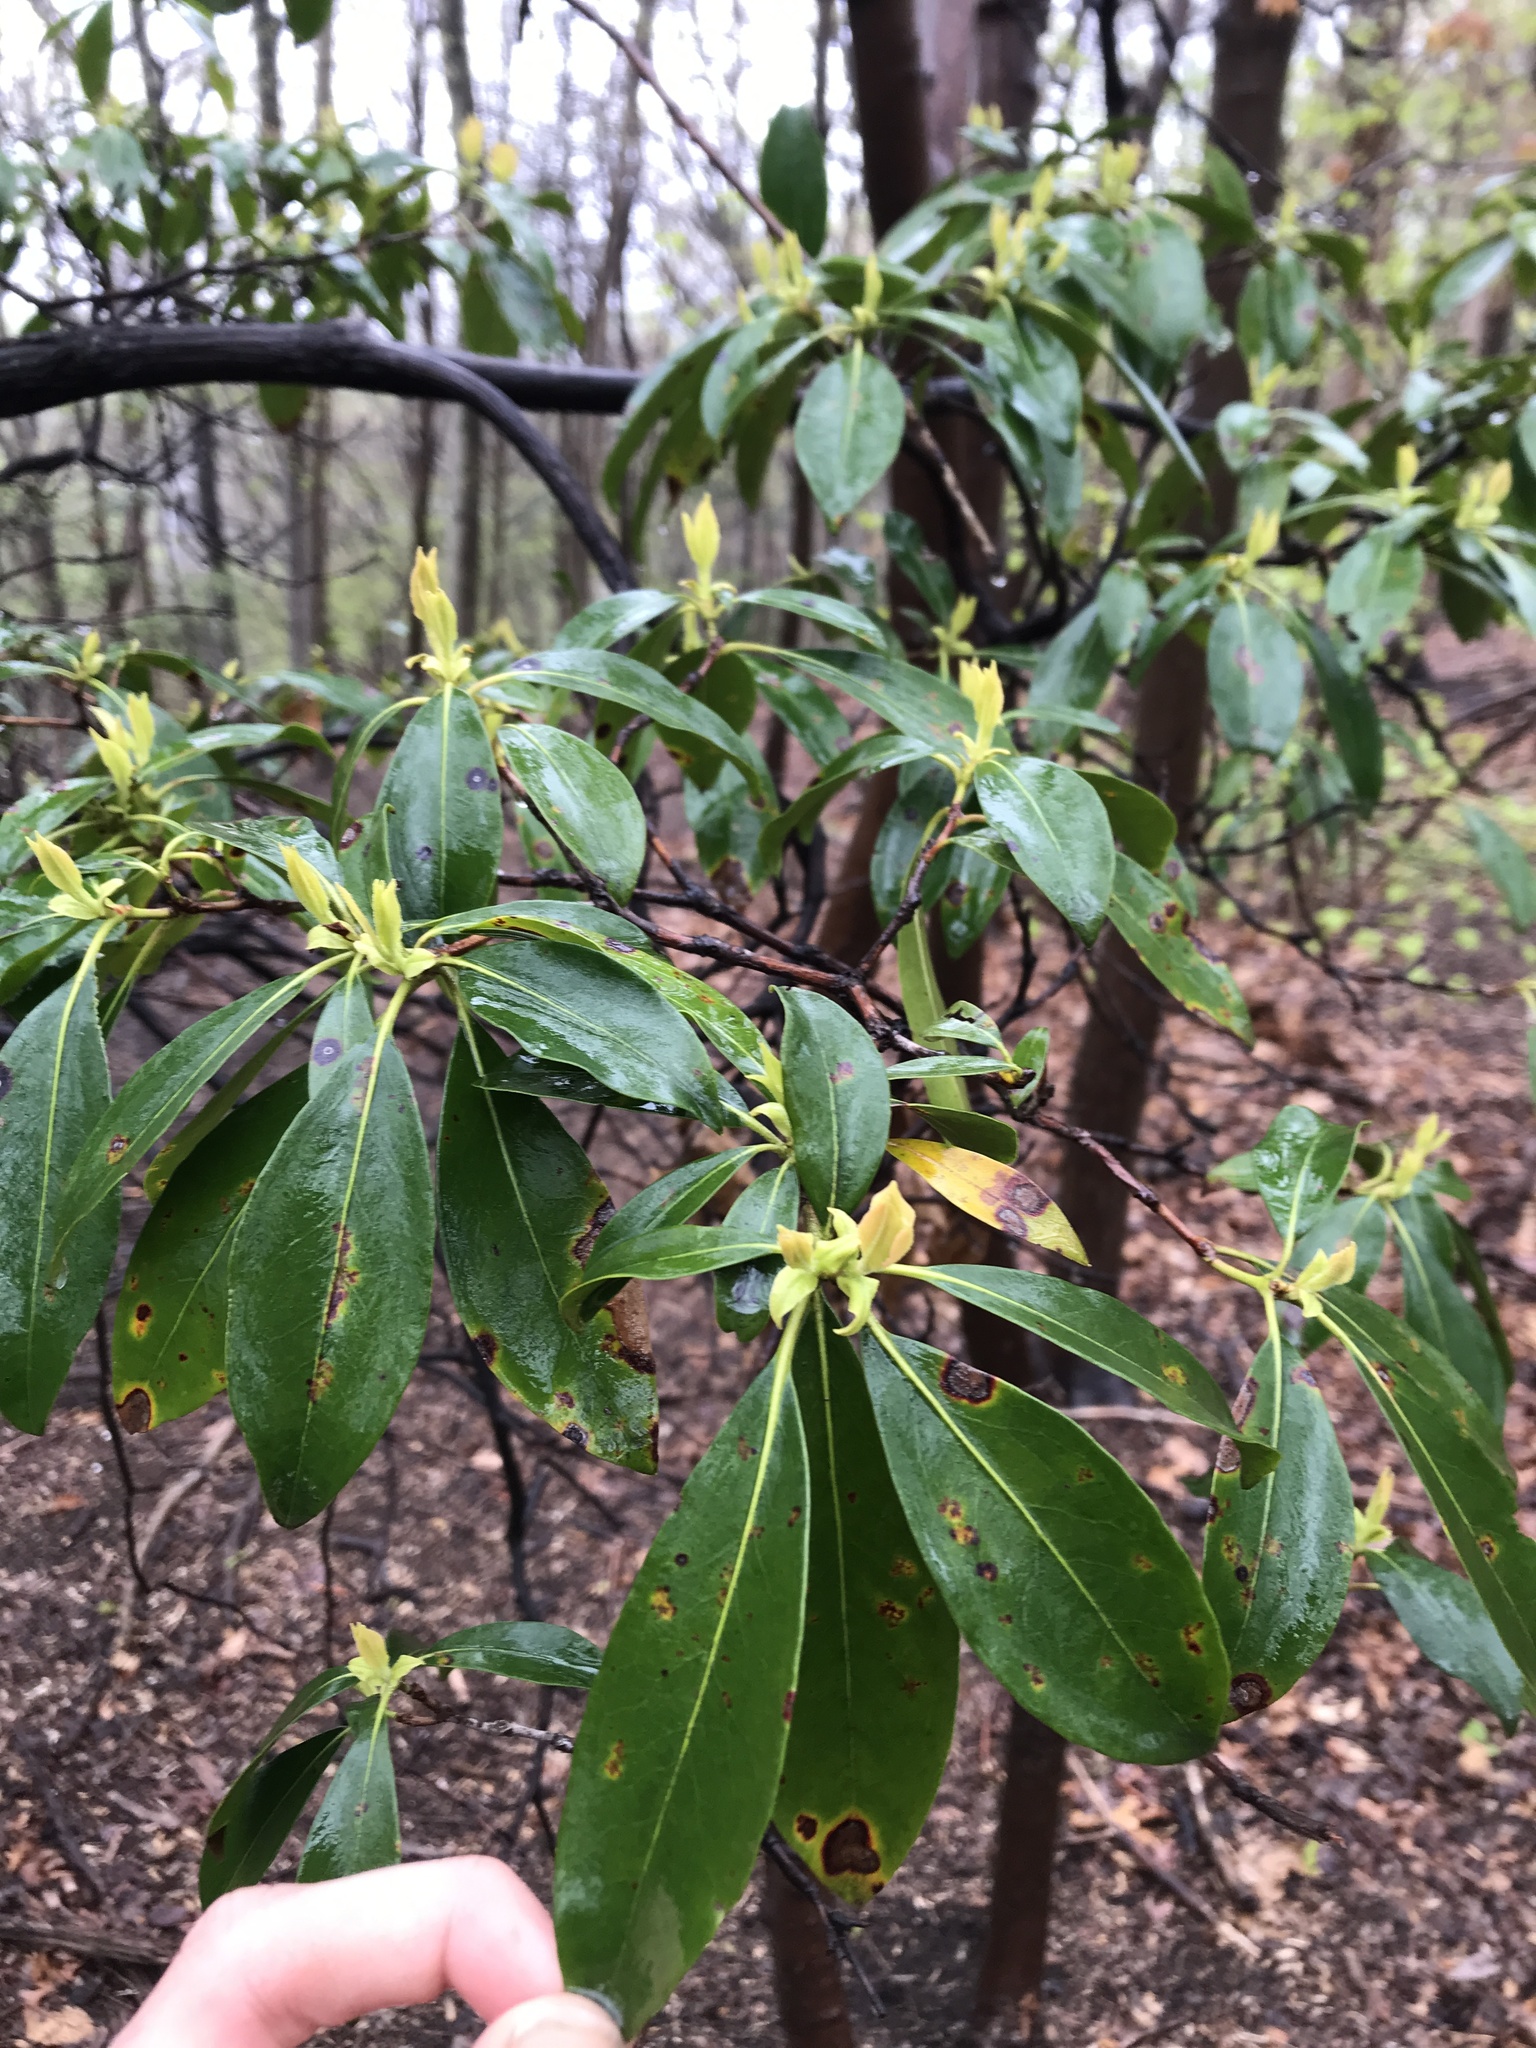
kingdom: Plantae
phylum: Tracheophyta
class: Magnoliopsida
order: Ericales
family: Ericaceae
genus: Kalmia
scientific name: Kalmia latifolia
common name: Mountain-laurel
